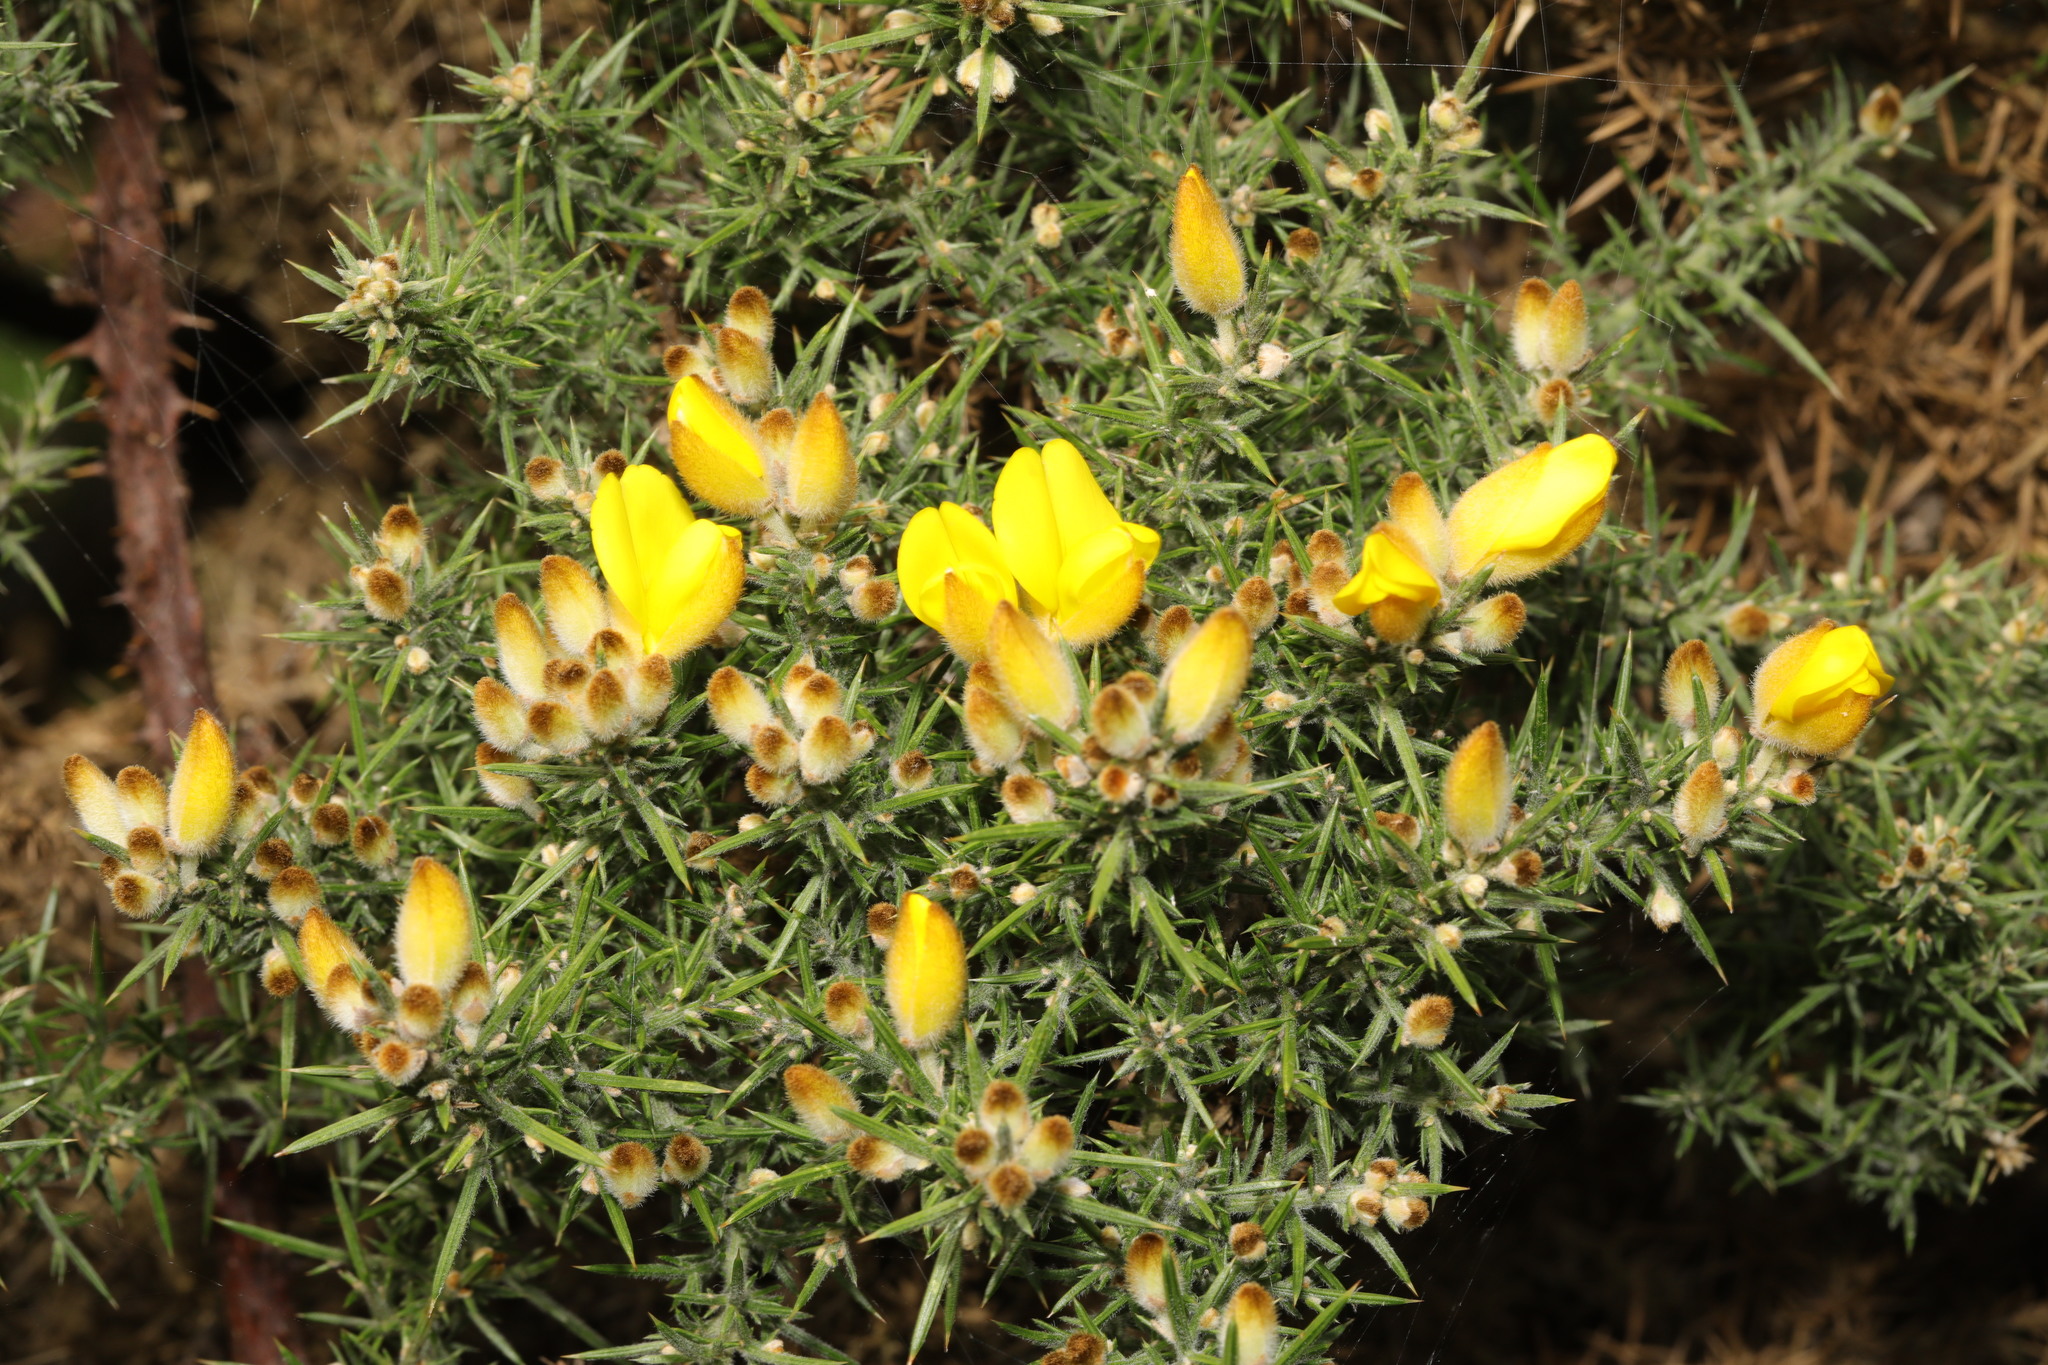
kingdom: Plantae
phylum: Tracheophyta
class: Magnoliopsida
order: Fabales
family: Fabaceae
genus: Ulex
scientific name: Ulex europaeus
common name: Common gorse
